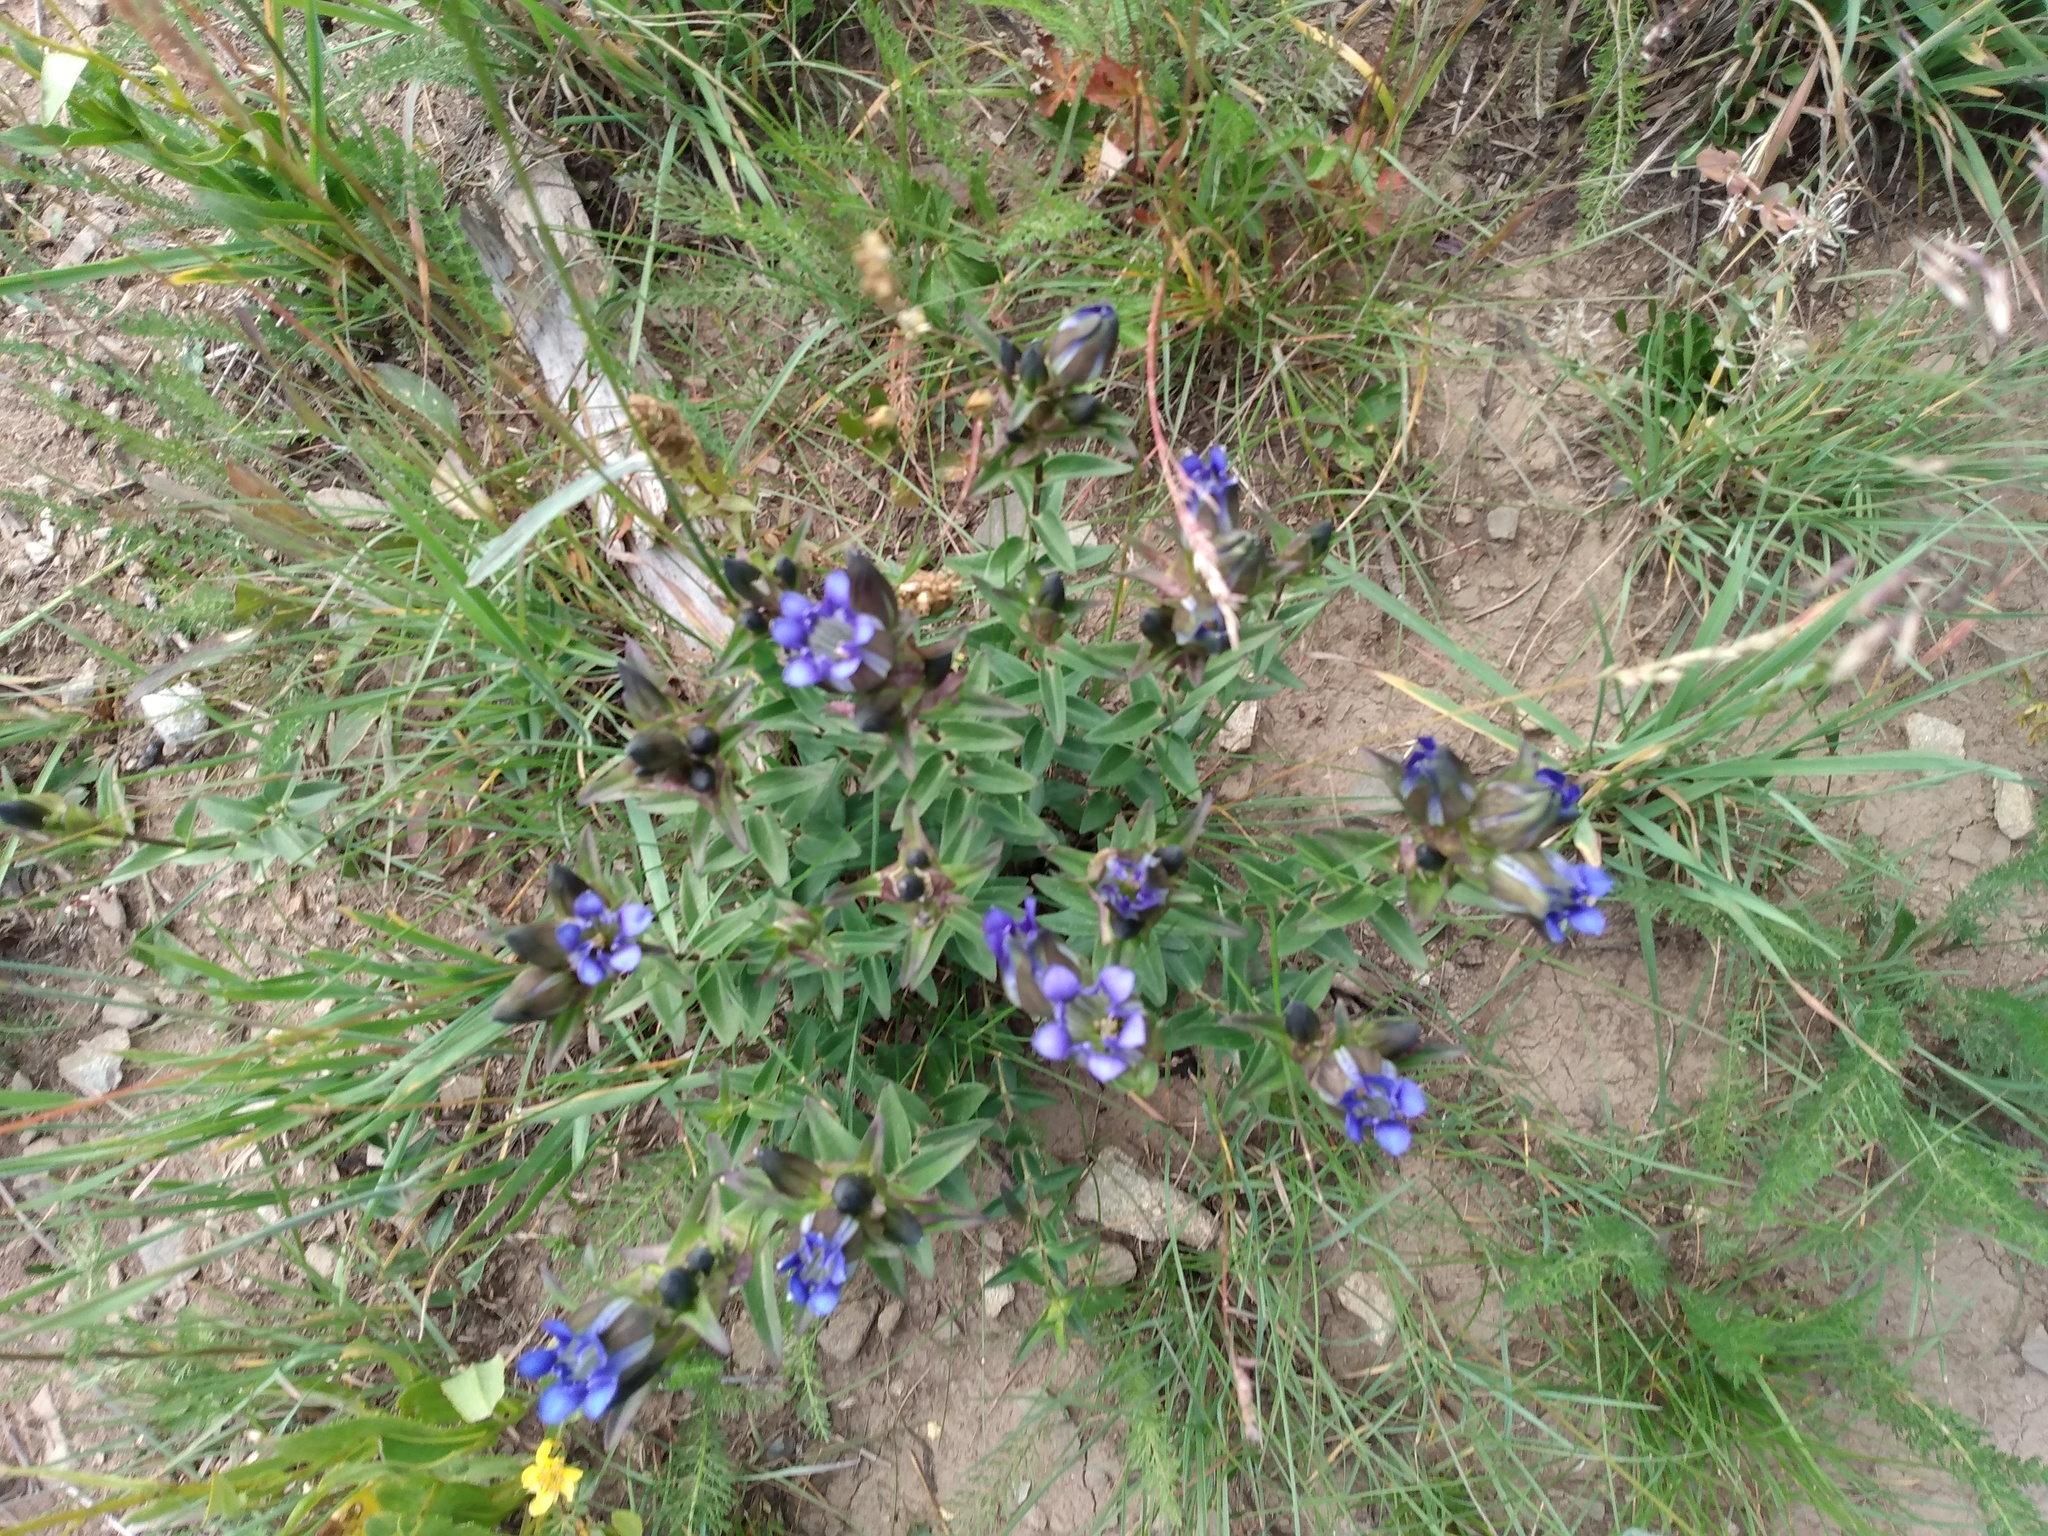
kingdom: Plantae
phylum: Tracheophyta
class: Magnoliopsida
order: Gentianales
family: Gentianaceae
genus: Gentiana
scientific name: Gentiana parryi
